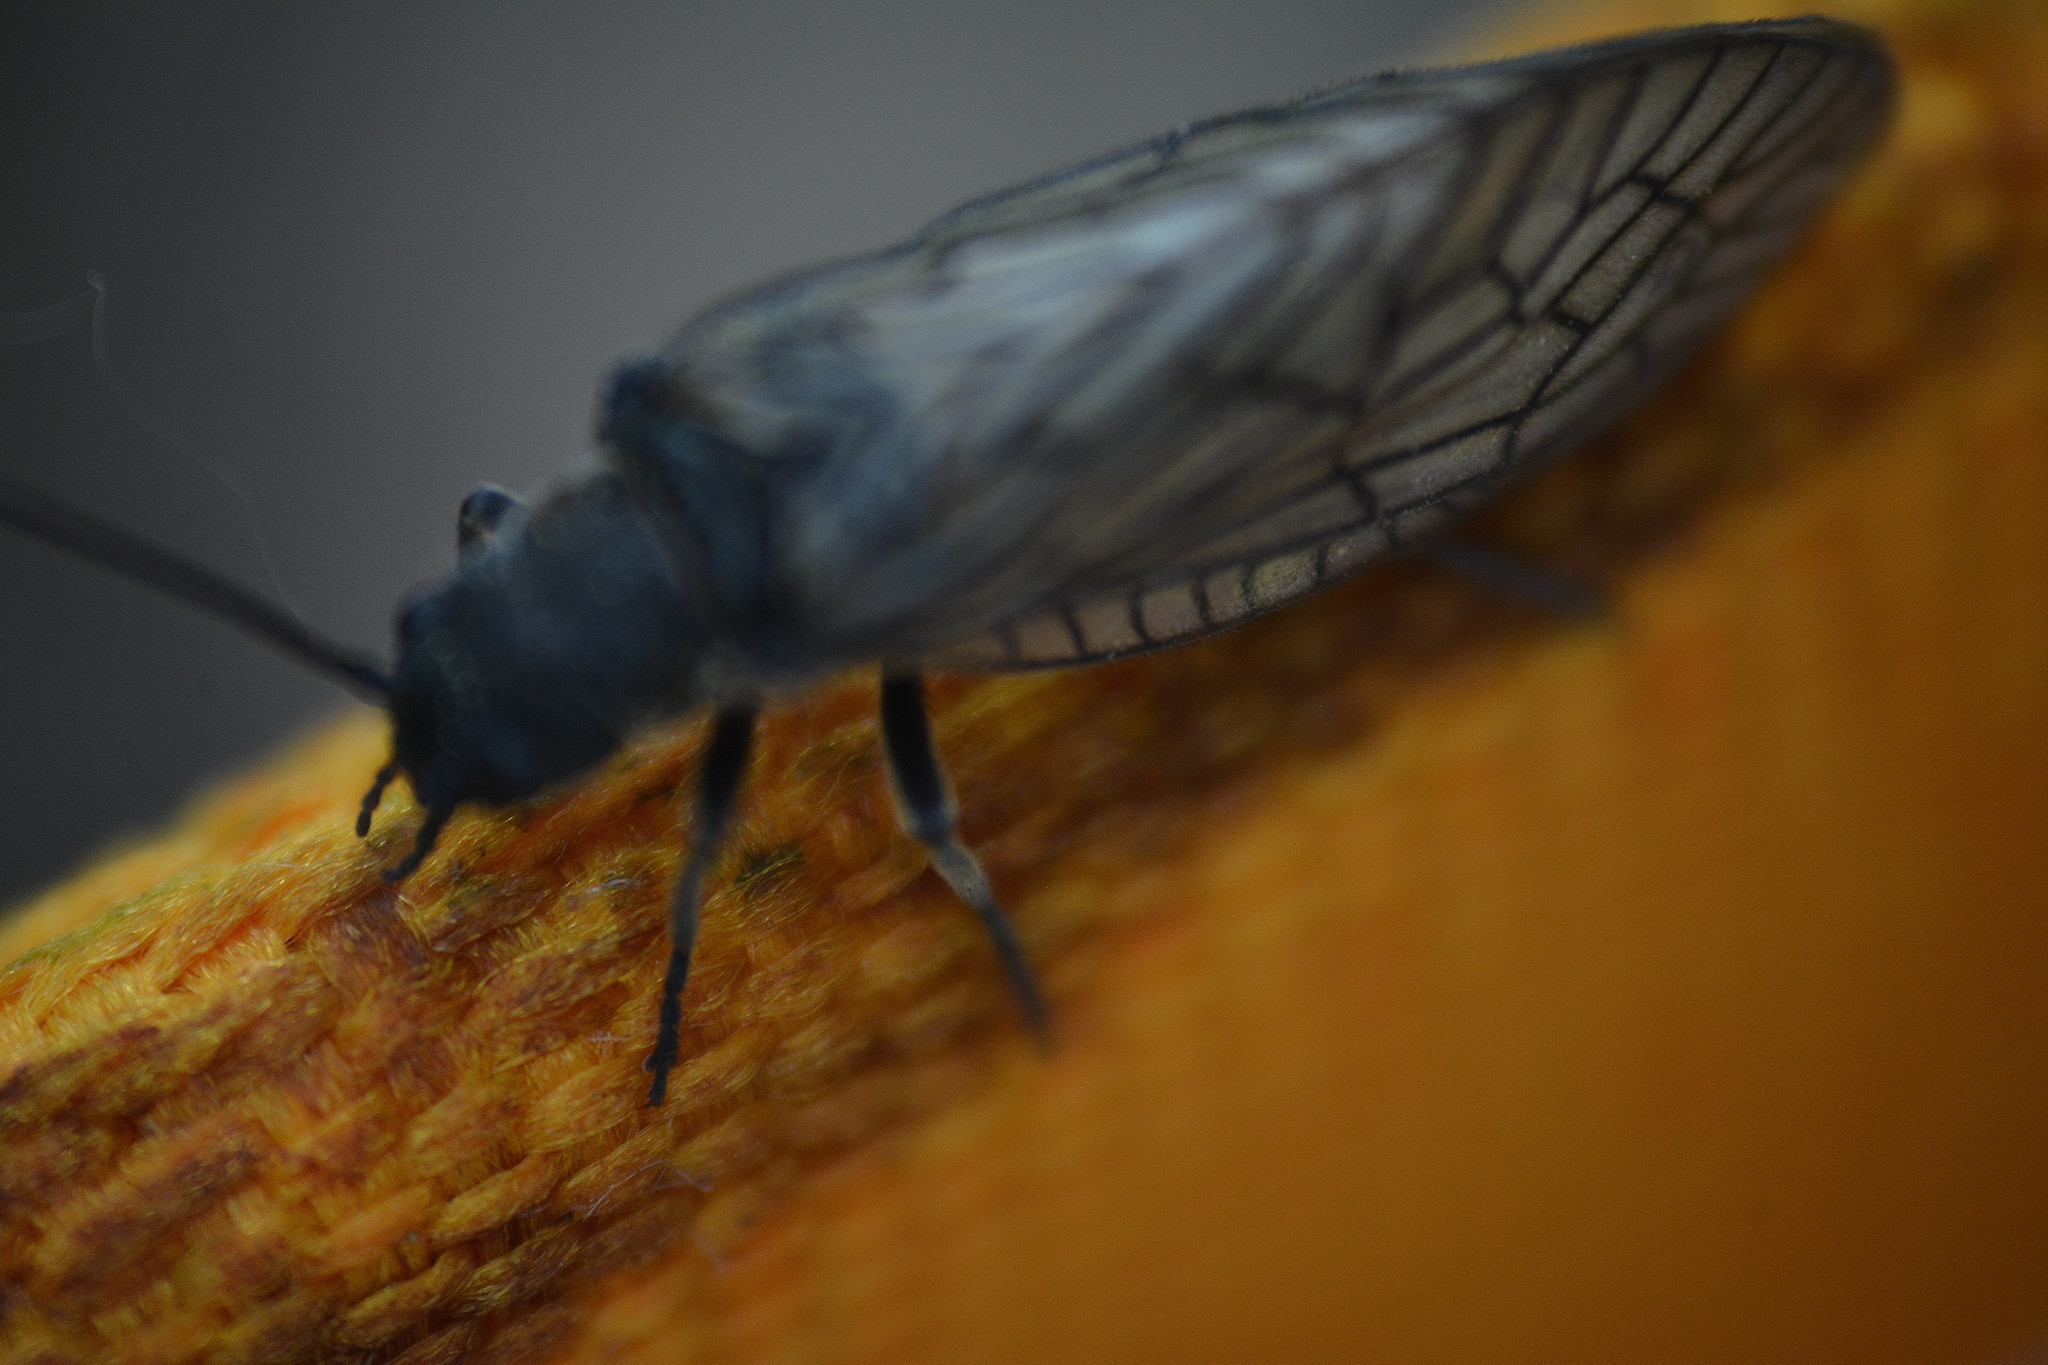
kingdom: Animalia
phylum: Arthropoda
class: Insecta
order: Megaloptera
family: Sialidae
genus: Sialis
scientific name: Sialis
